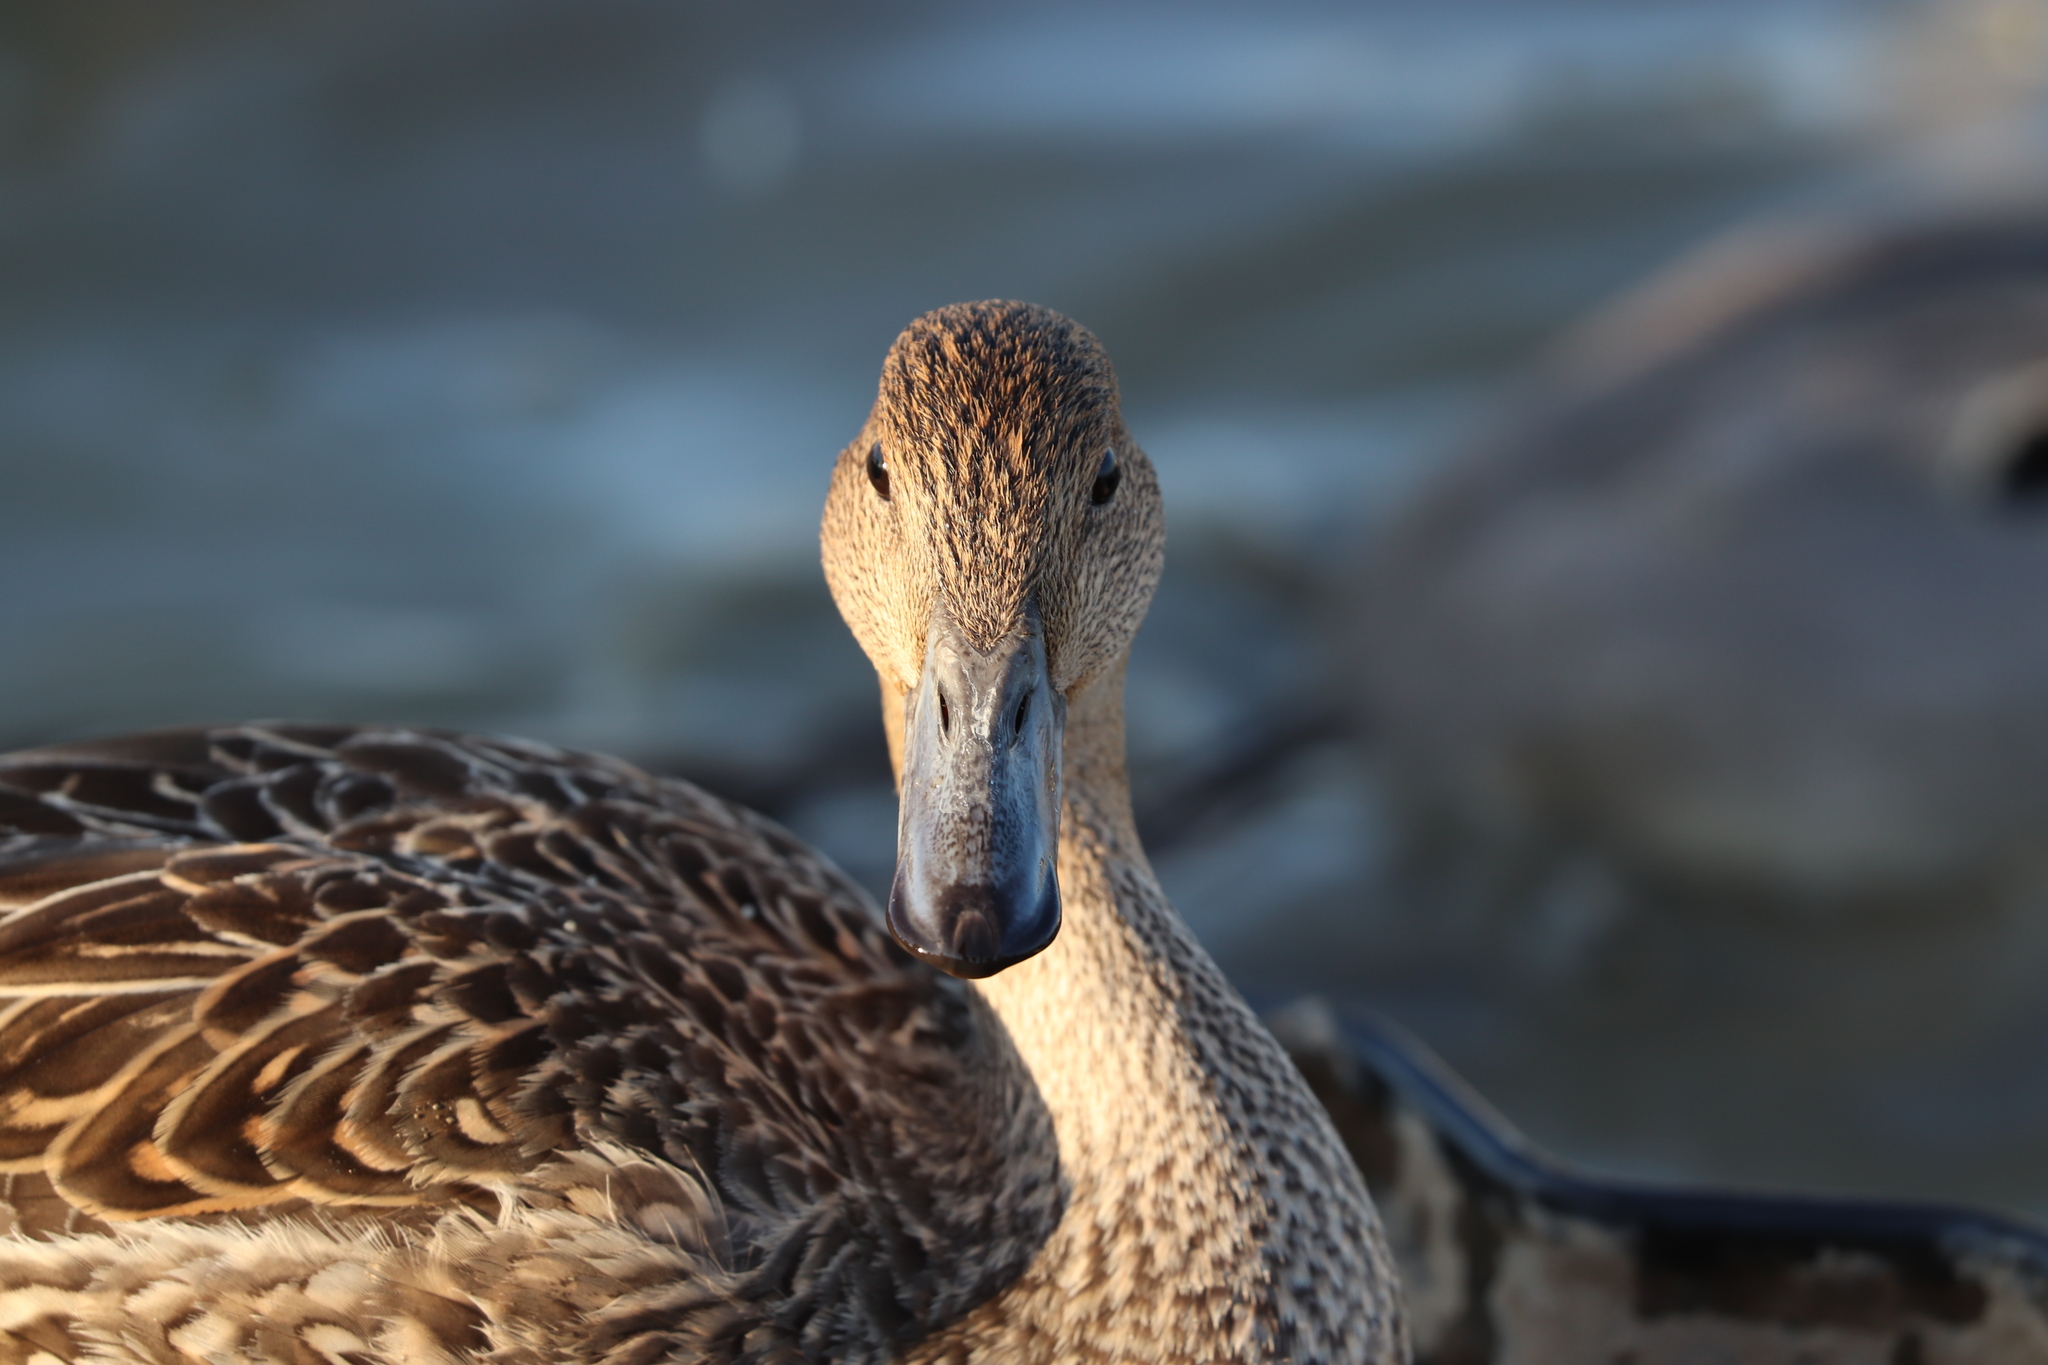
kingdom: Animalia
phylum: Chordata
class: Aves
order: Anseriformes
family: Anatidae
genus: Anas
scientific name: Anas acuta
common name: Northern pintail
